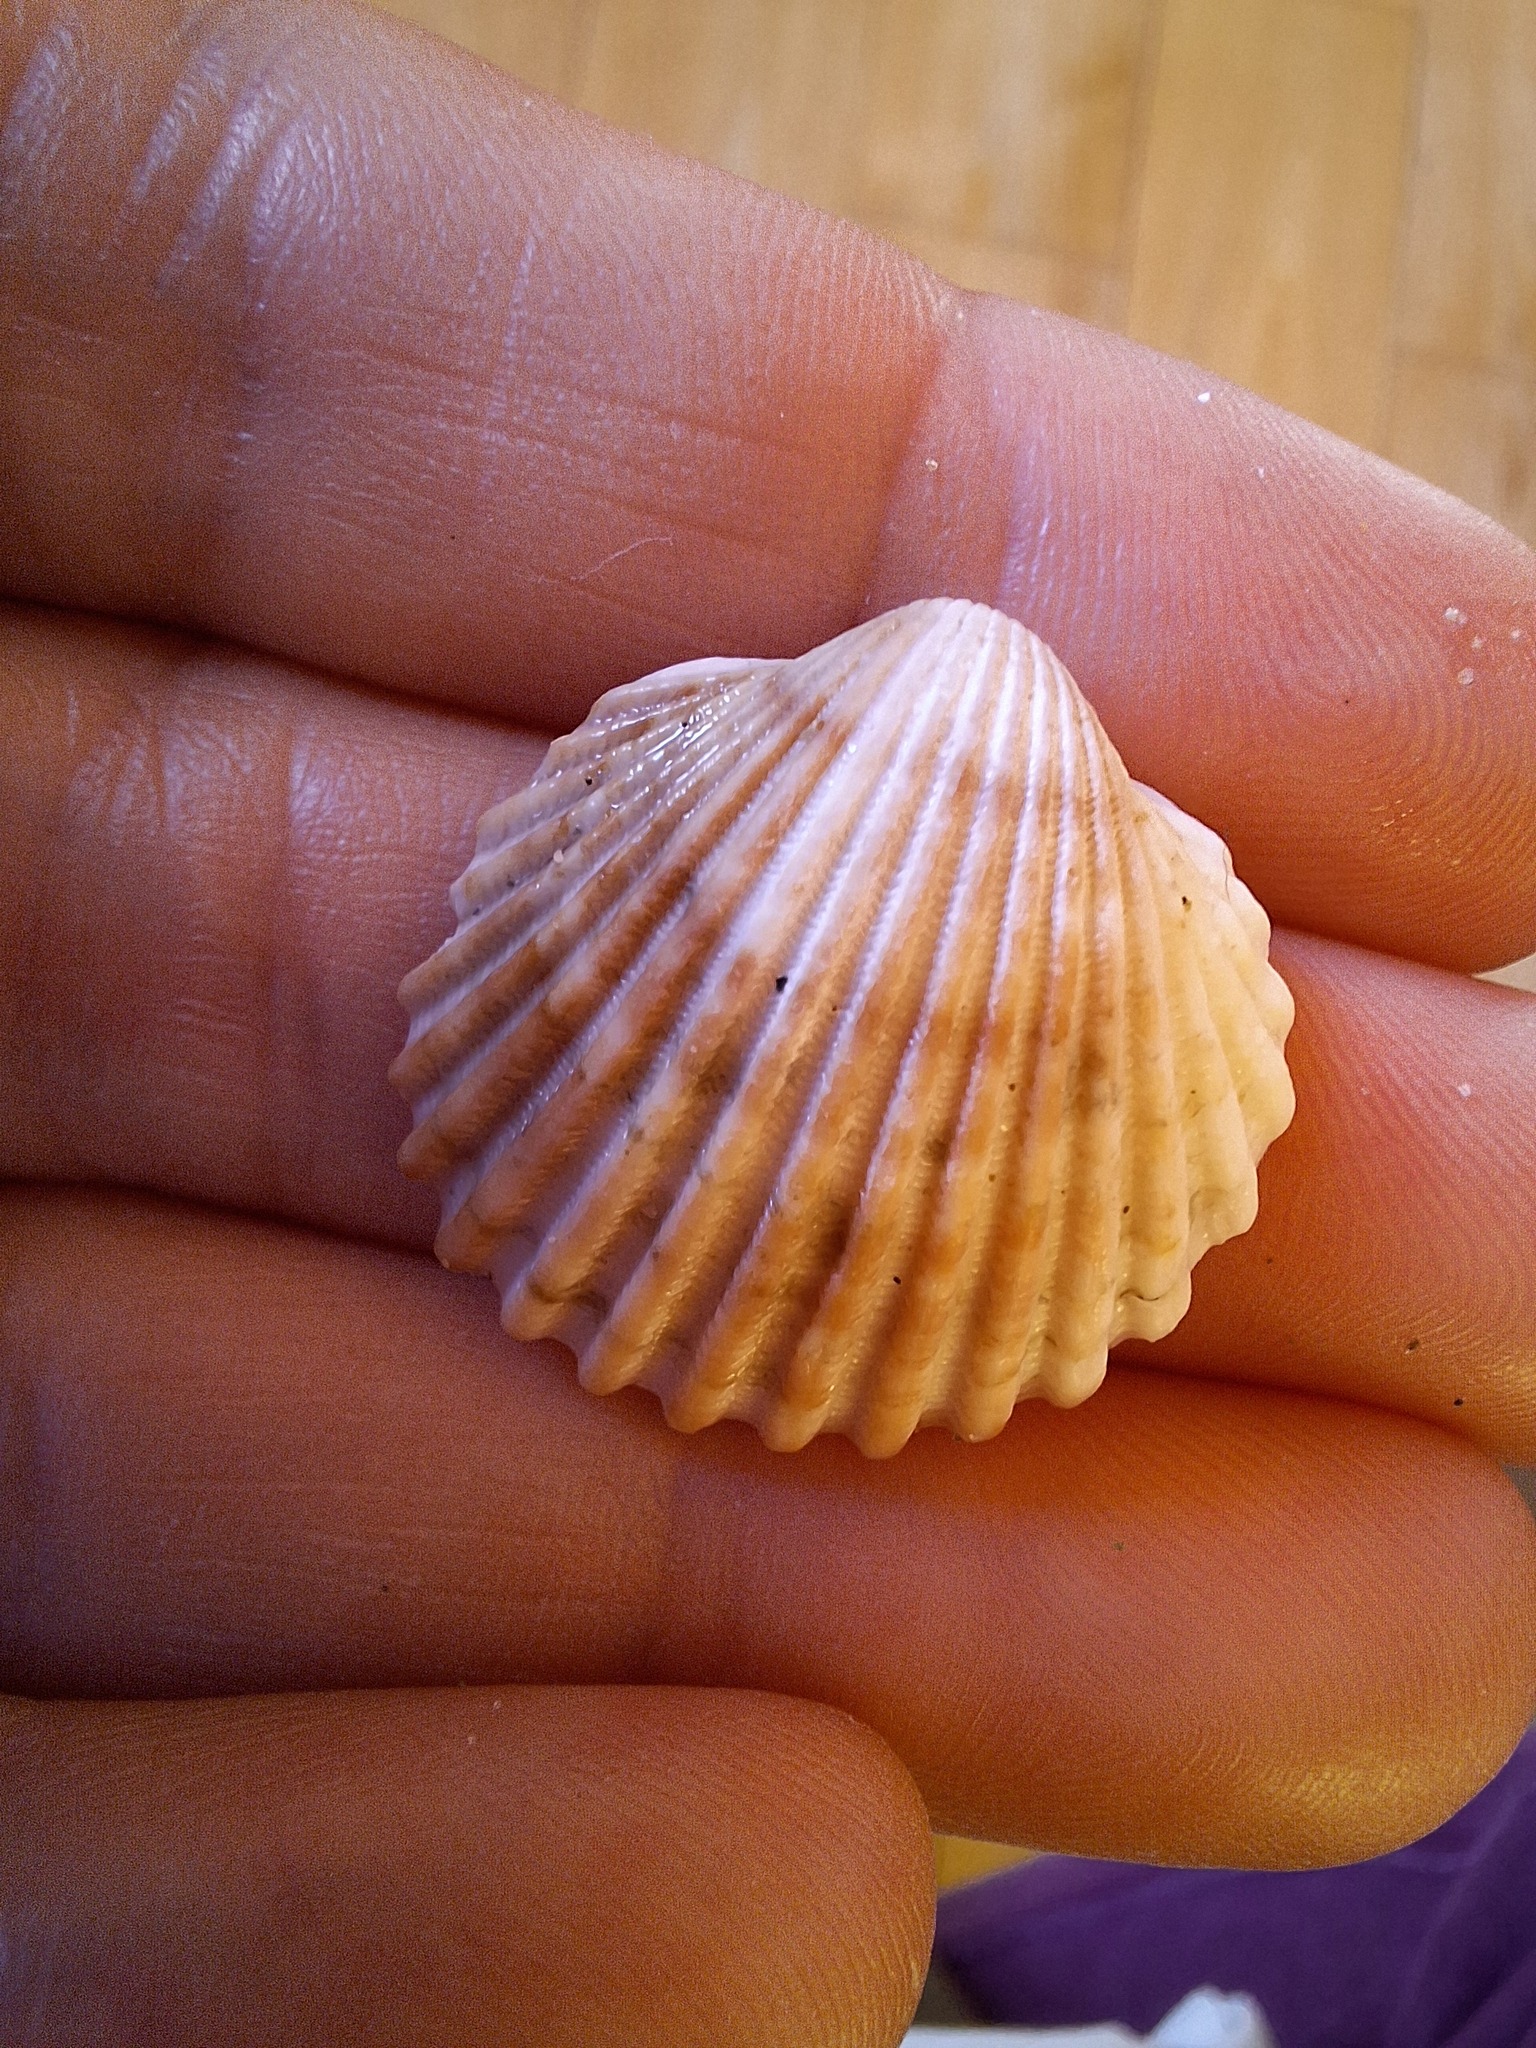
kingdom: Animalia
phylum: Mollusca
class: Bivalvia
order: Cardiida
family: Cardiidae
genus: Acanthocardia
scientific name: Acanthocardia tuberculata
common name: Rough cockle
